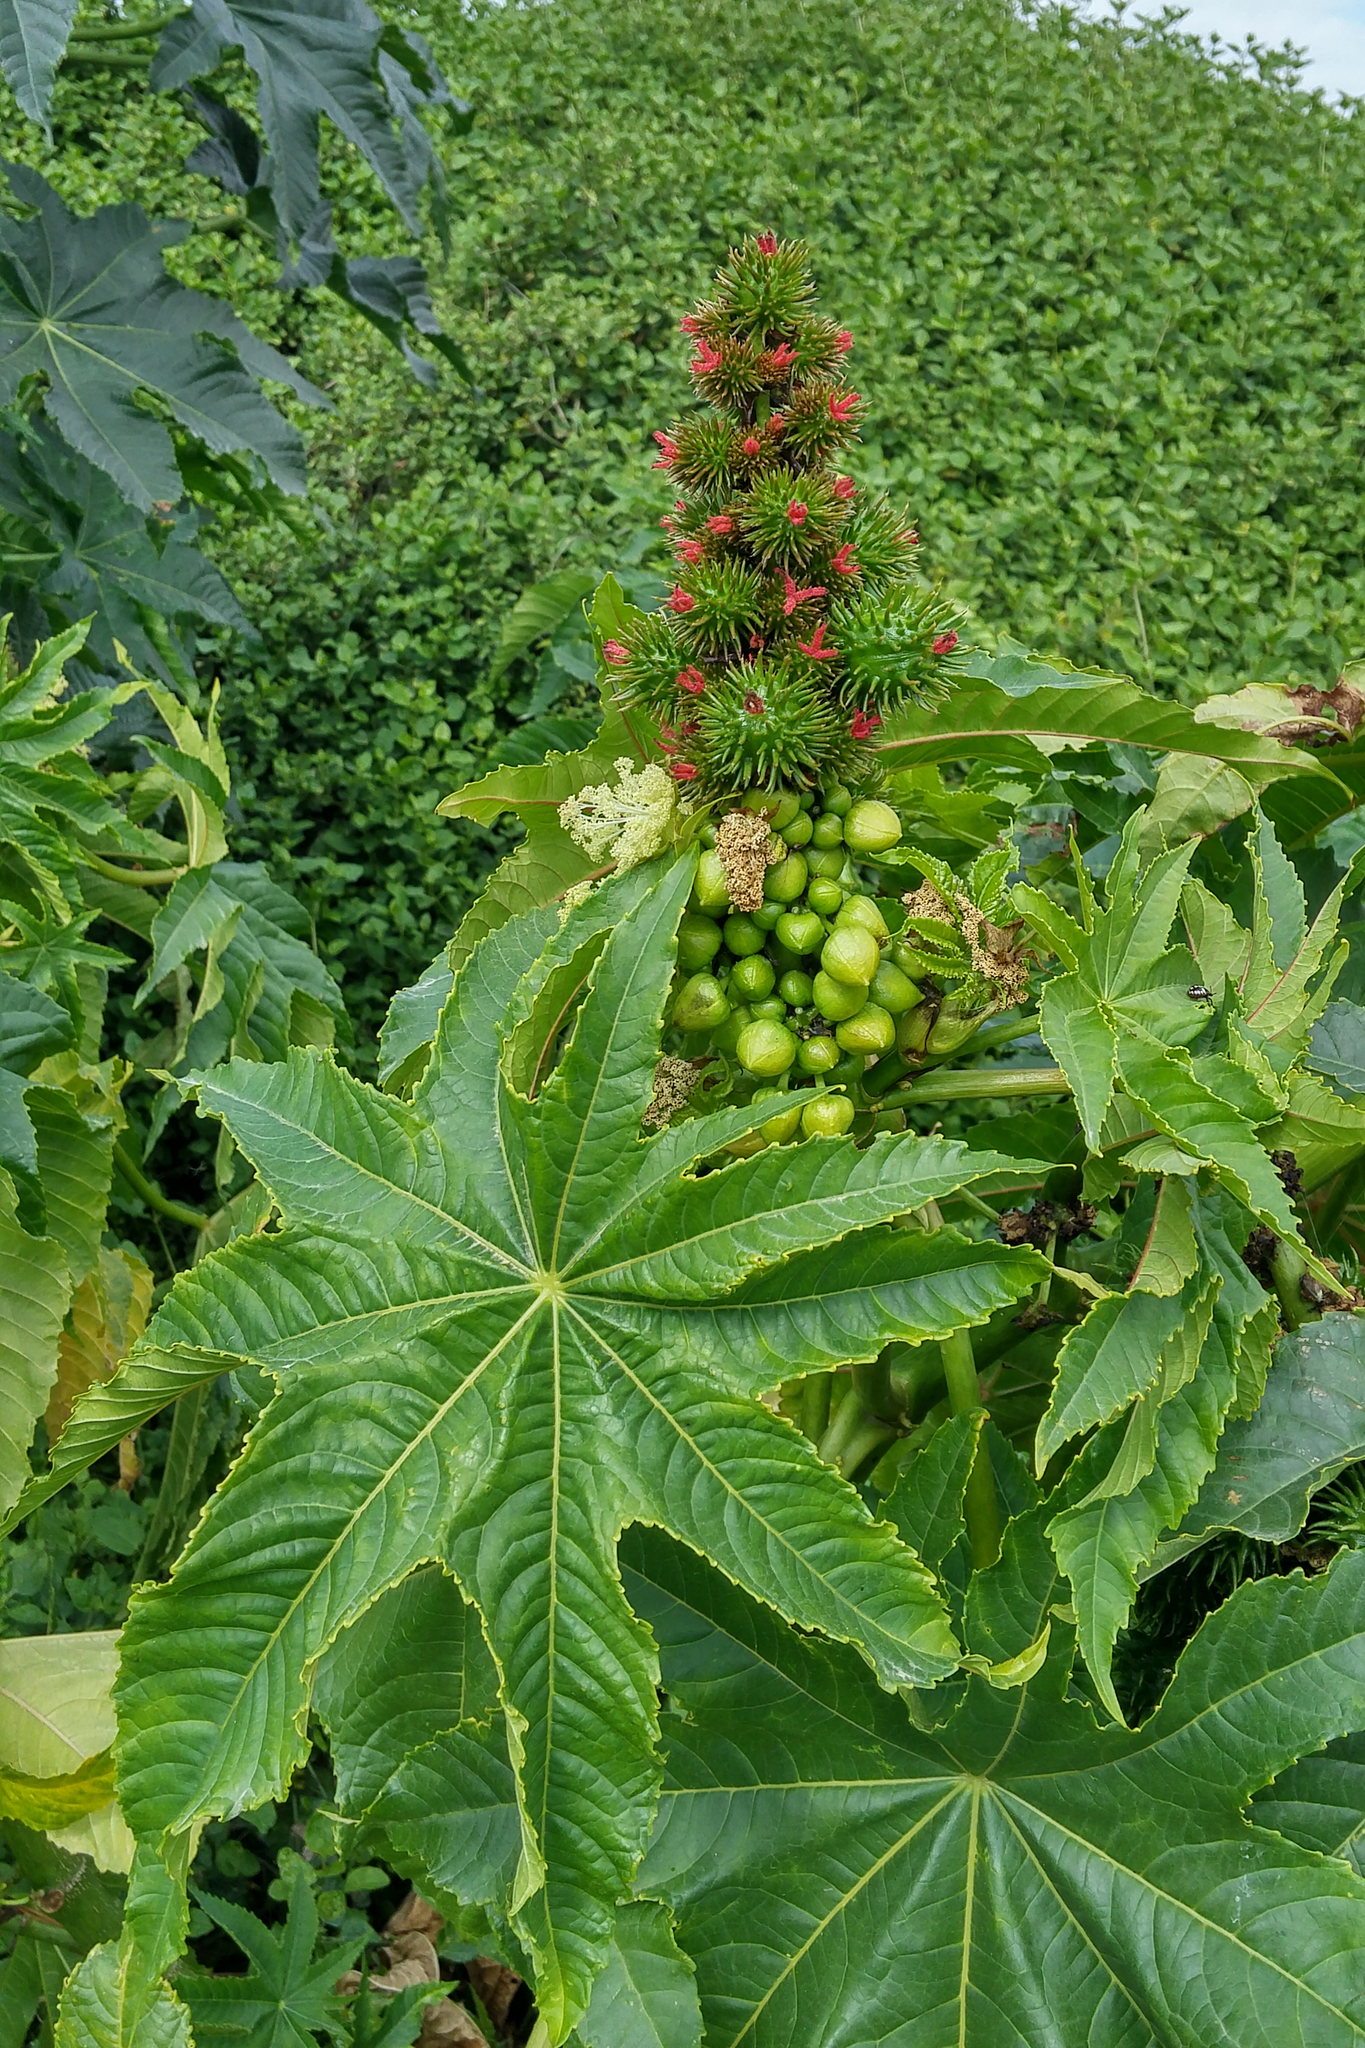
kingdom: Plantae
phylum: Tracheophyta
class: Magnoliopsida
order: Malpighiales
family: Euphorbiaceae
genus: Ricinus
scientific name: Ricinus communis
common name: Castor-oil-plant
